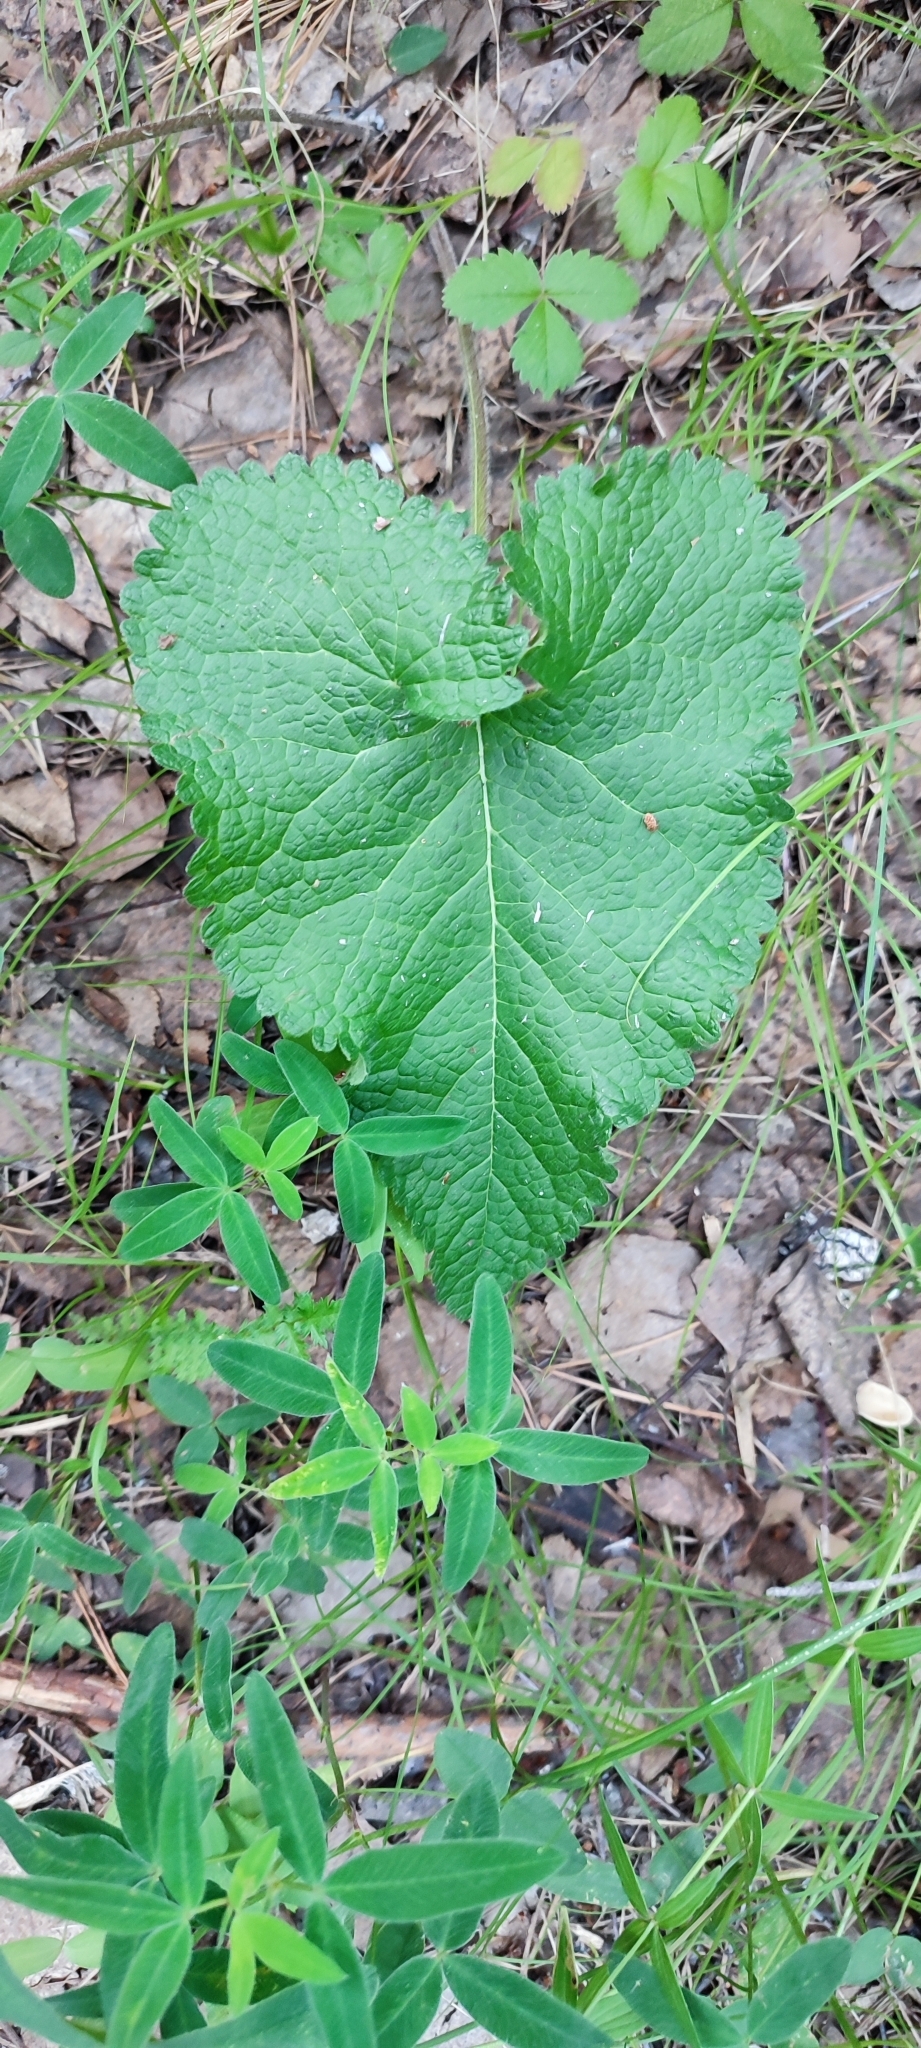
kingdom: Plantae
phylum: Tracheophyta
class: Magnoliopsida
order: Lamiales
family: Lamiaceae
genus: Phlomoides
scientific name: Phlomoides tuberosa
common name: Tuberous jerusalem sage
